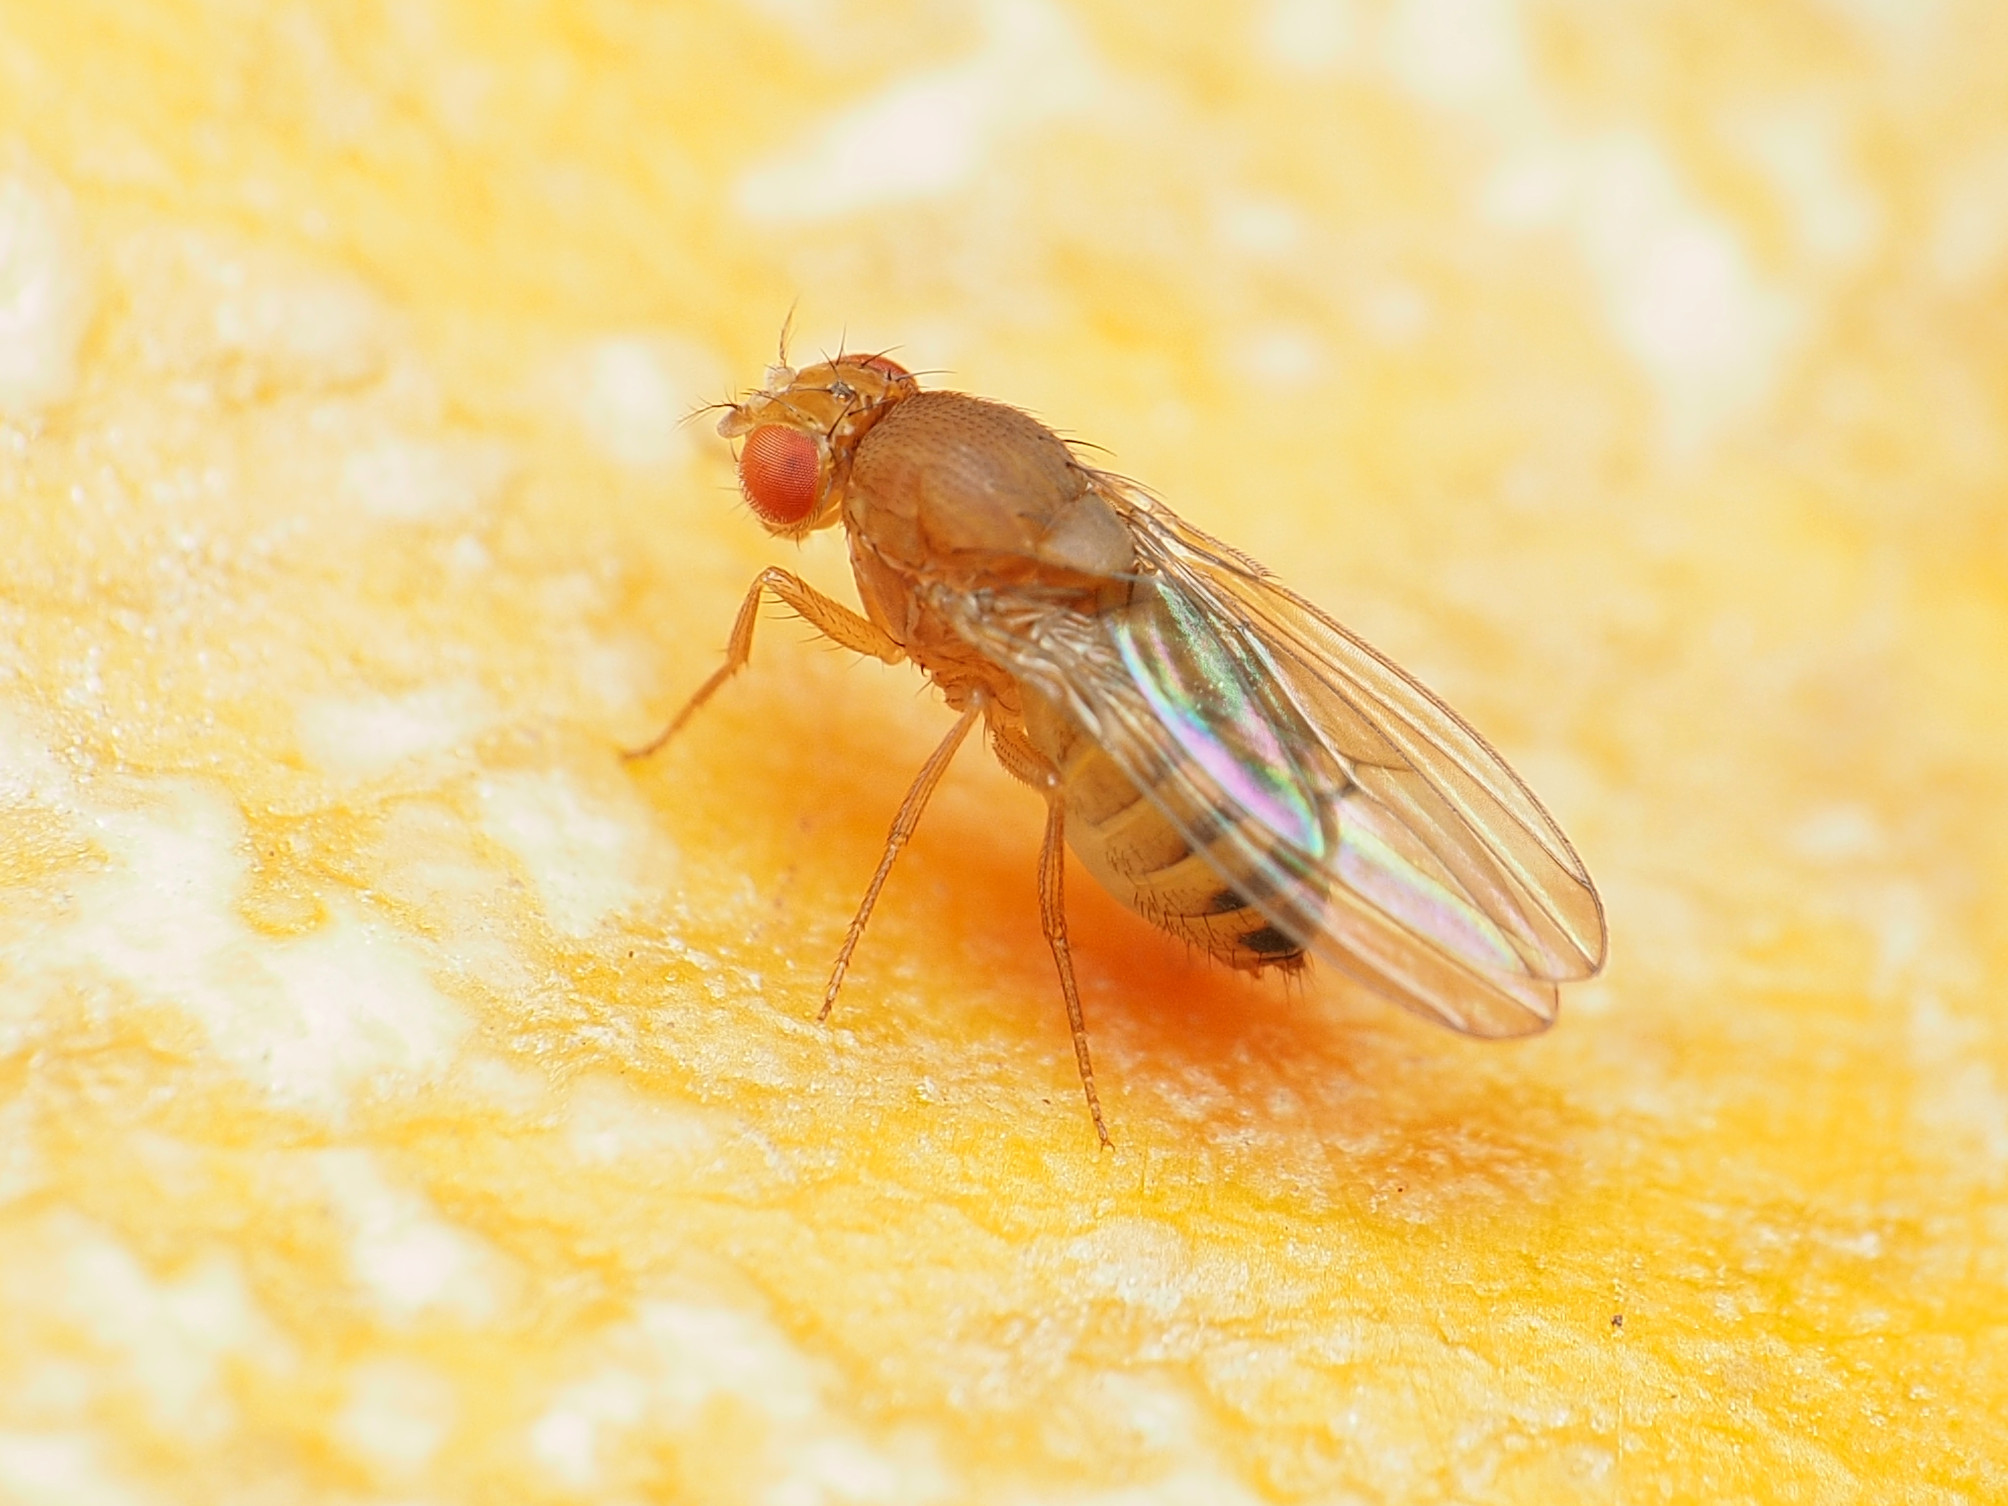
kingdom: Animalia
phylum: Arthropoda
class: Insecta
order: Diptera
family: Drosophilidae
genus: Drosophila
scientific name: Drosophila immigrans
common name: Pomace fly
